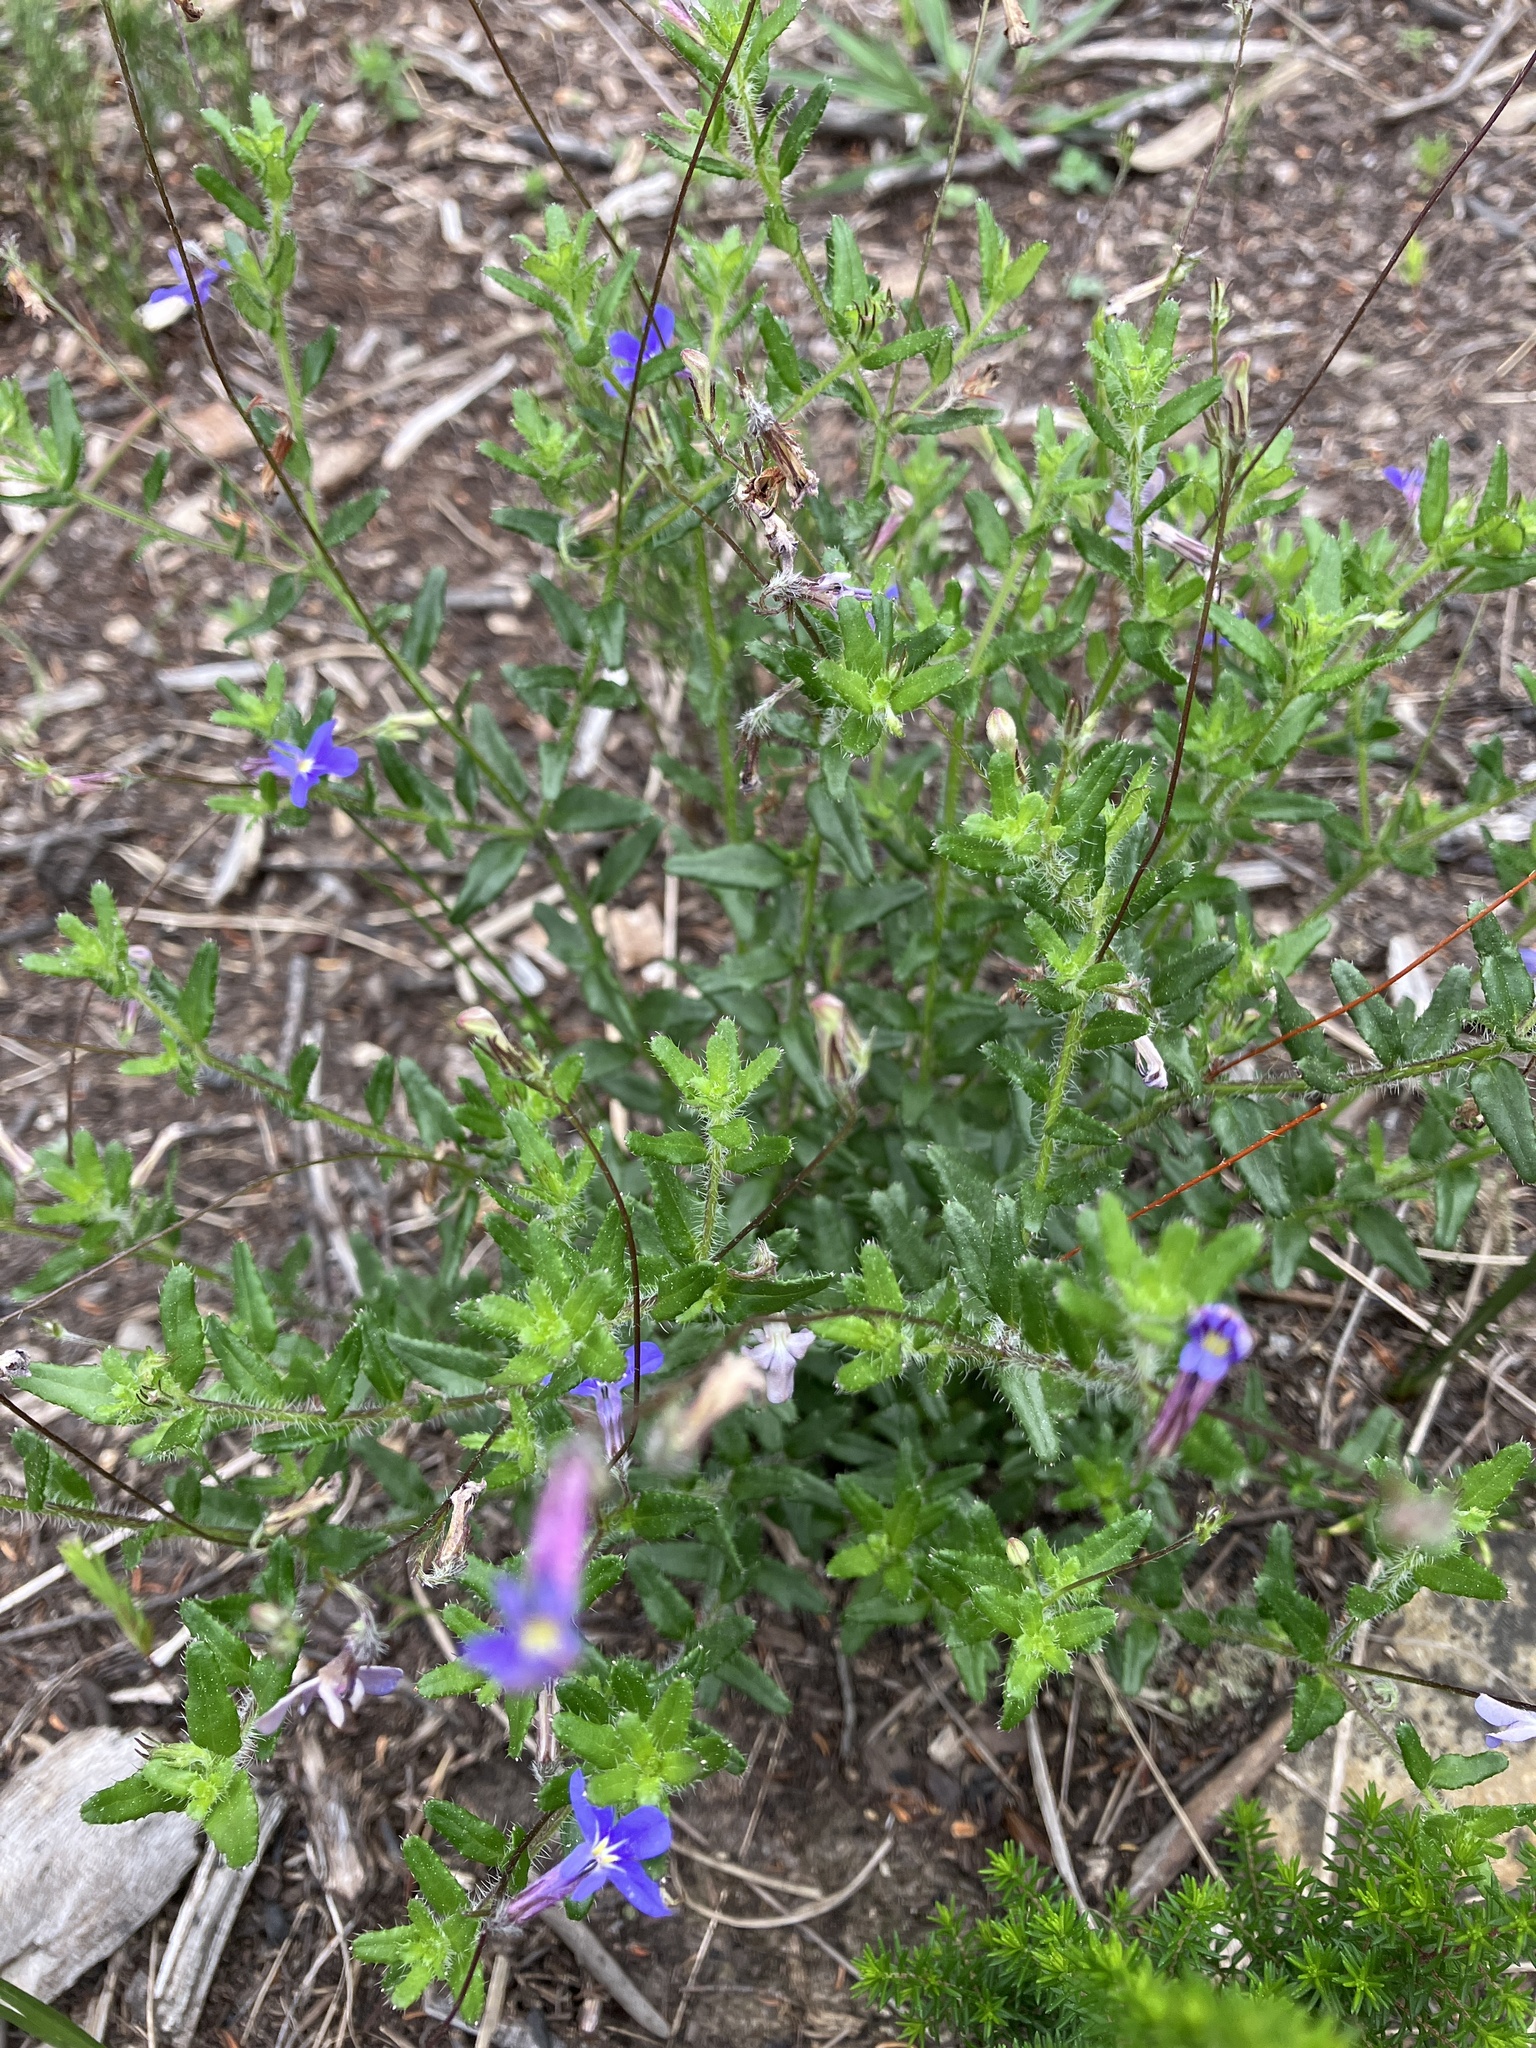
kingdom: Plantae
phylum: Tracheophyta
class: Magnoliopsida
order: Asterales
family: Campanulaceae
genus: Lobelia
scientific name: Lobelia neglecta
